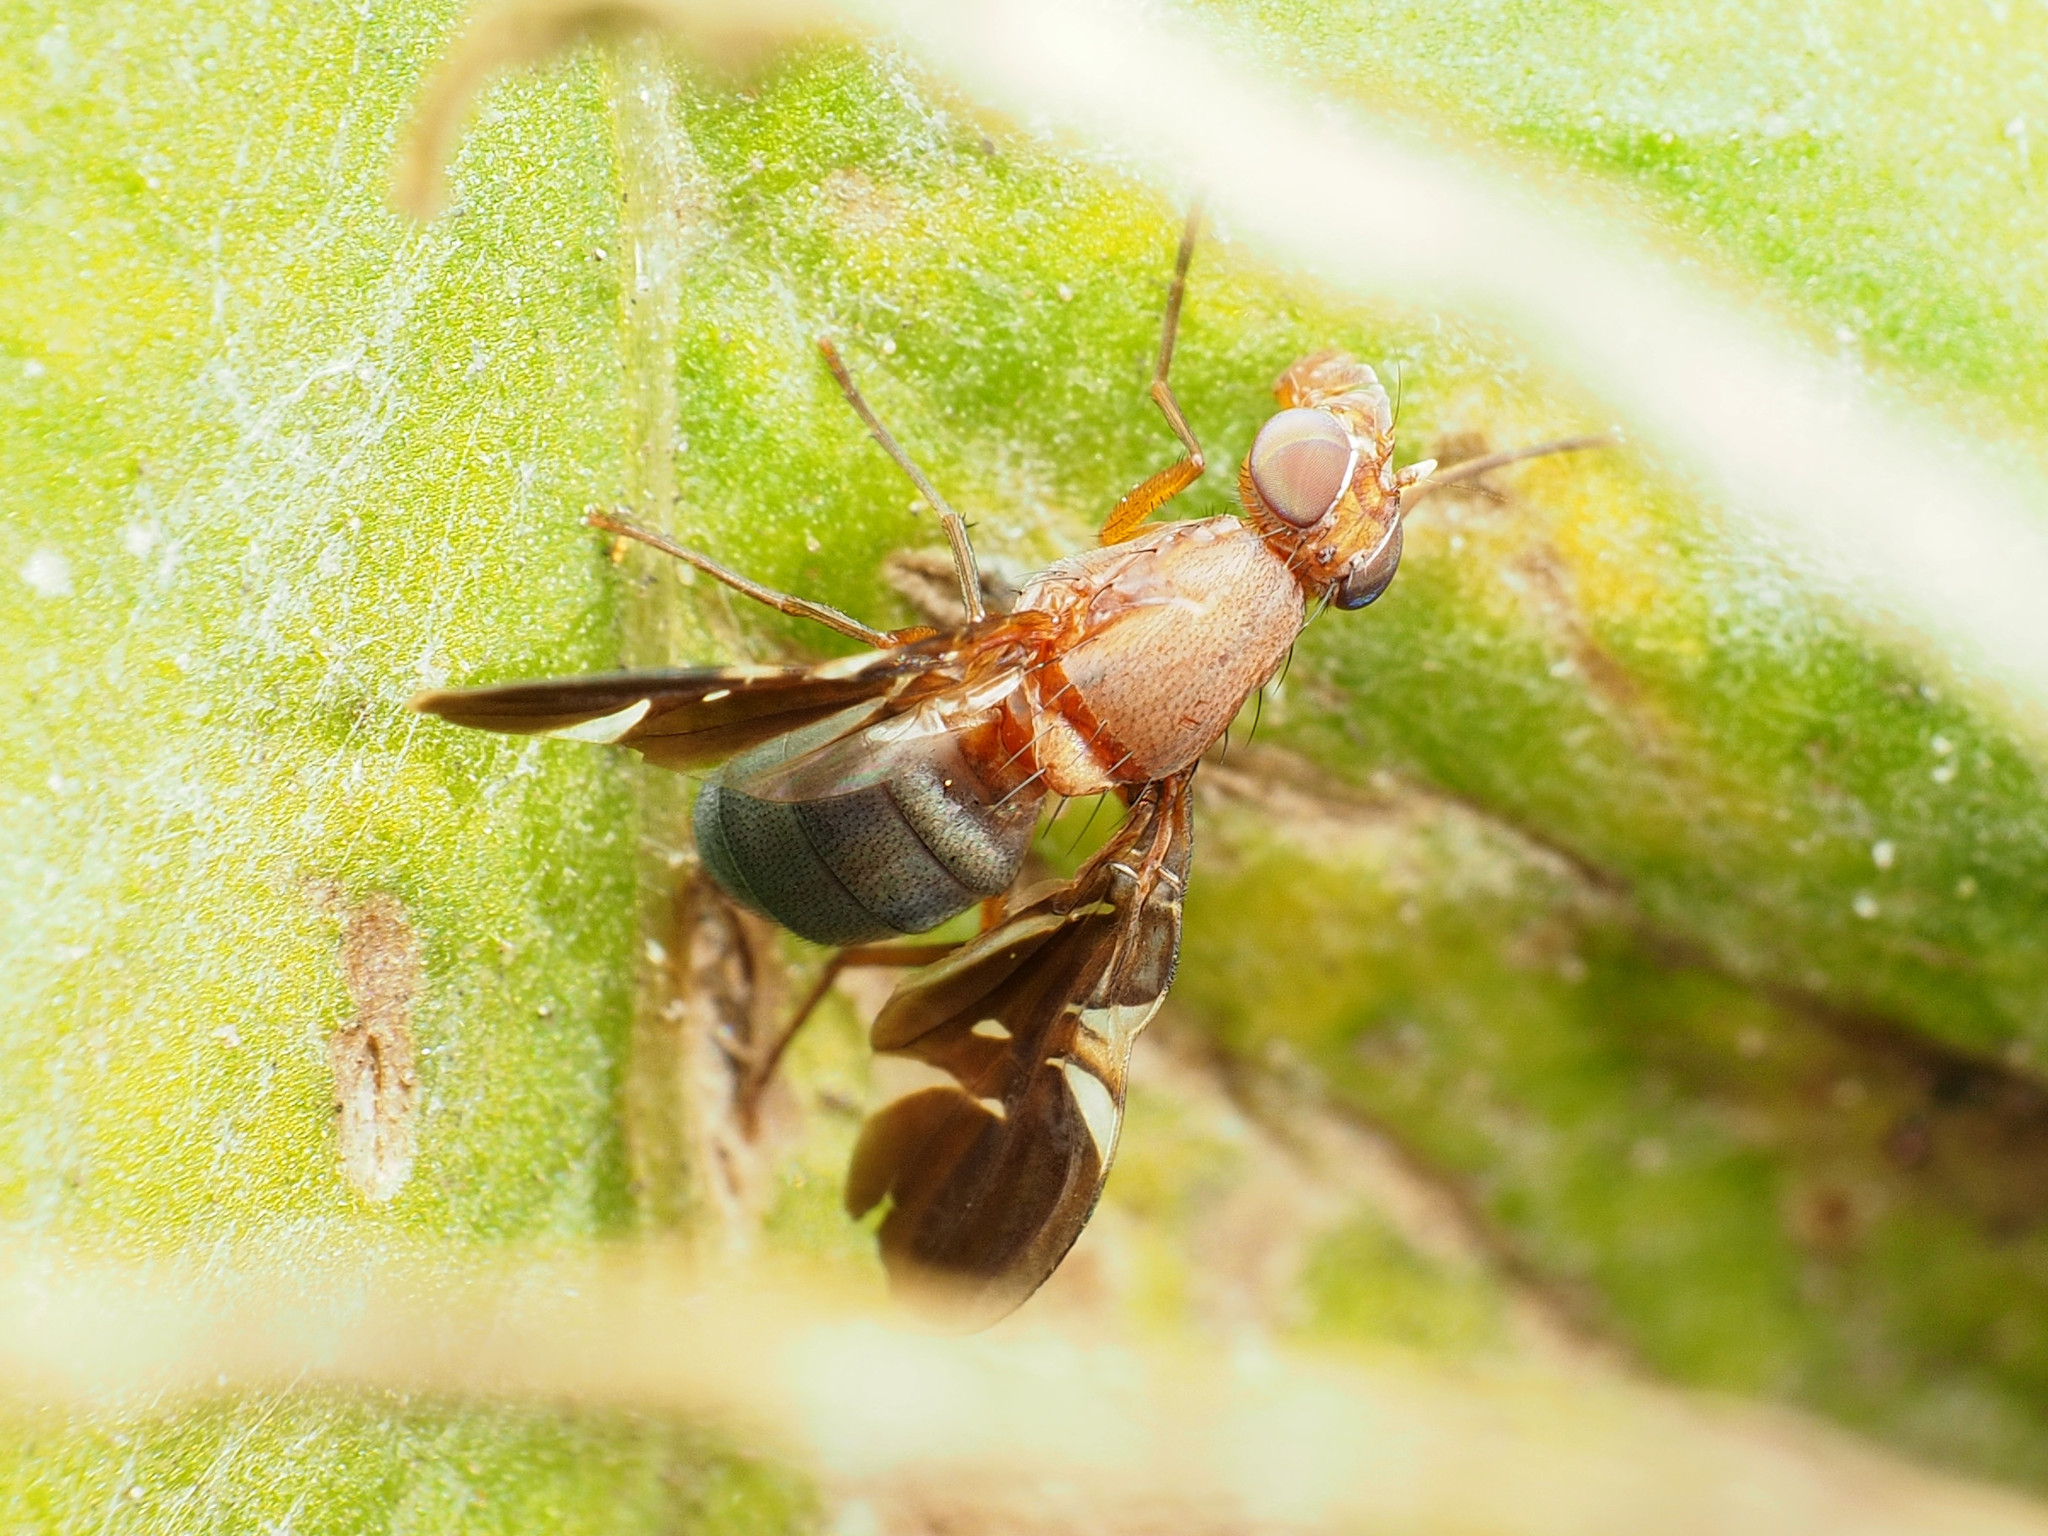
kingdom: Animalia
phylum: Arthropoda
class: Insecta
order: Diptera
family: Ulidiidae
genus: Delphinia
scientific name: Delphinia picta
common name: Common picture-winged fly
